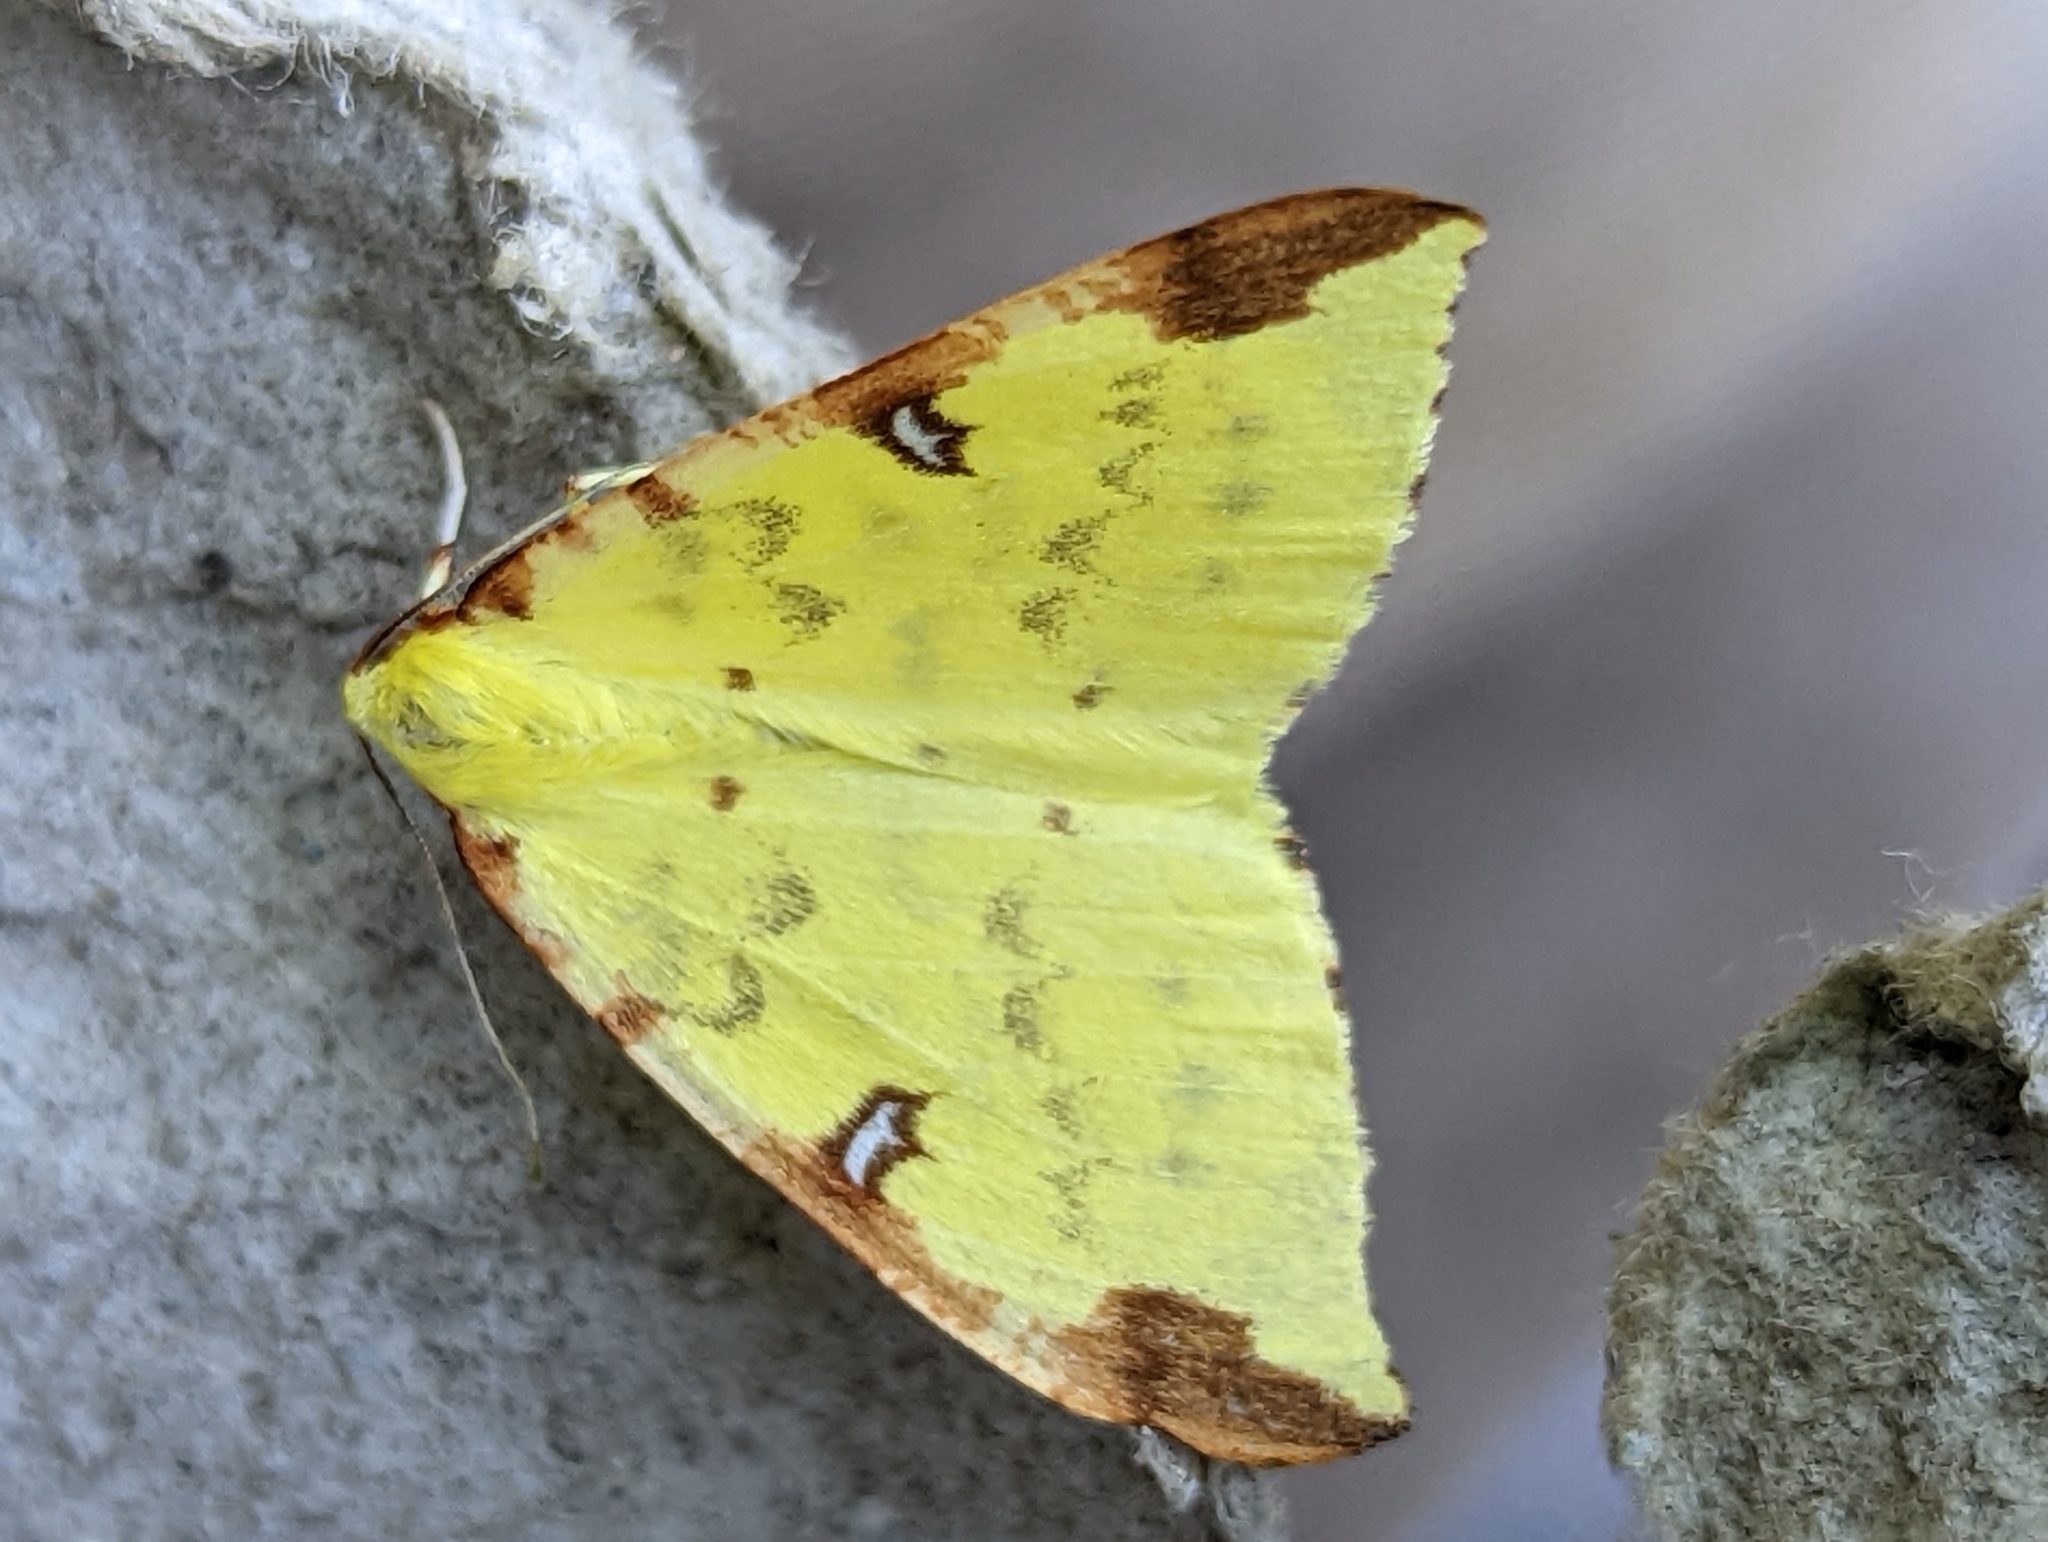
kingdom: Animalia
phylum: Arthropoda
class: Insecta
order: Lepidoptera
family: Geometridae
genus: Opisthograptis
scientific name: Opisthograptis luteolata
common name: Brimstone moth
